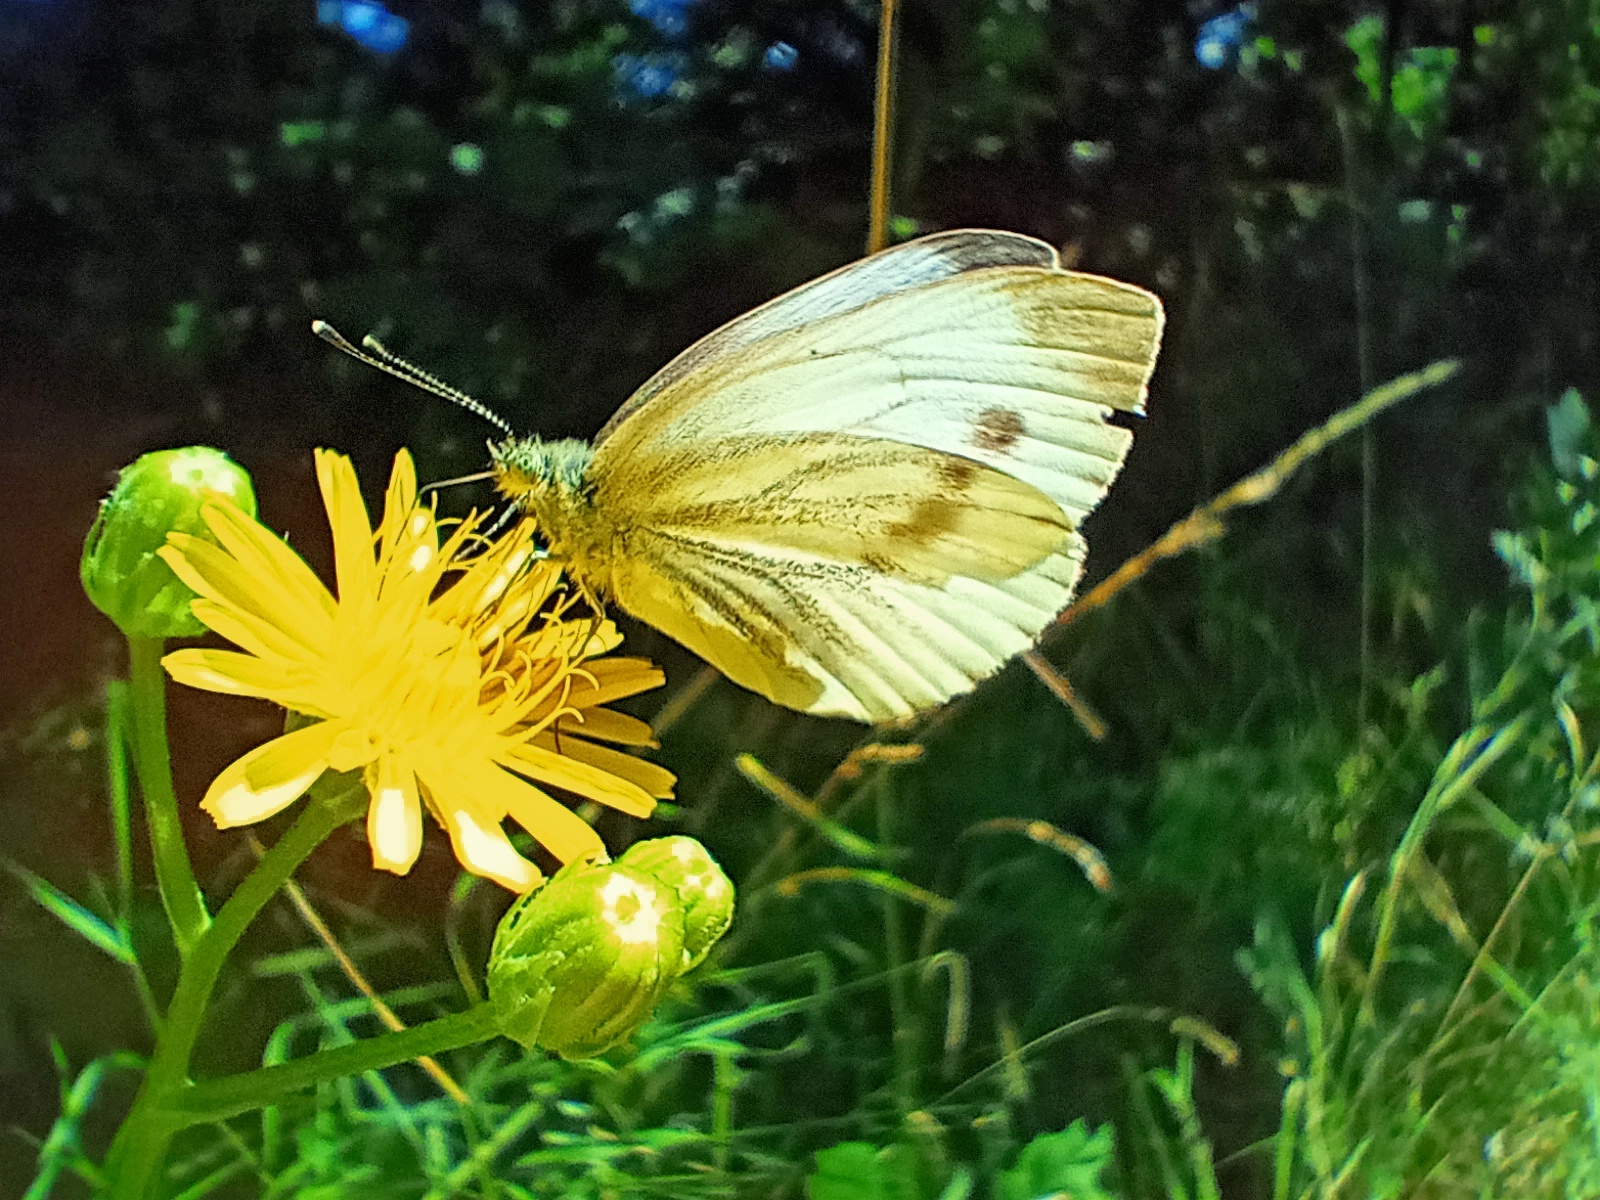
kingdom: Animalia
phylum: Arthropoda
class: Insecta
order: Lepidoptera
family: Pieridae
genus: Pieris
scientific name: Pieris napi
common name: Green-veined white
